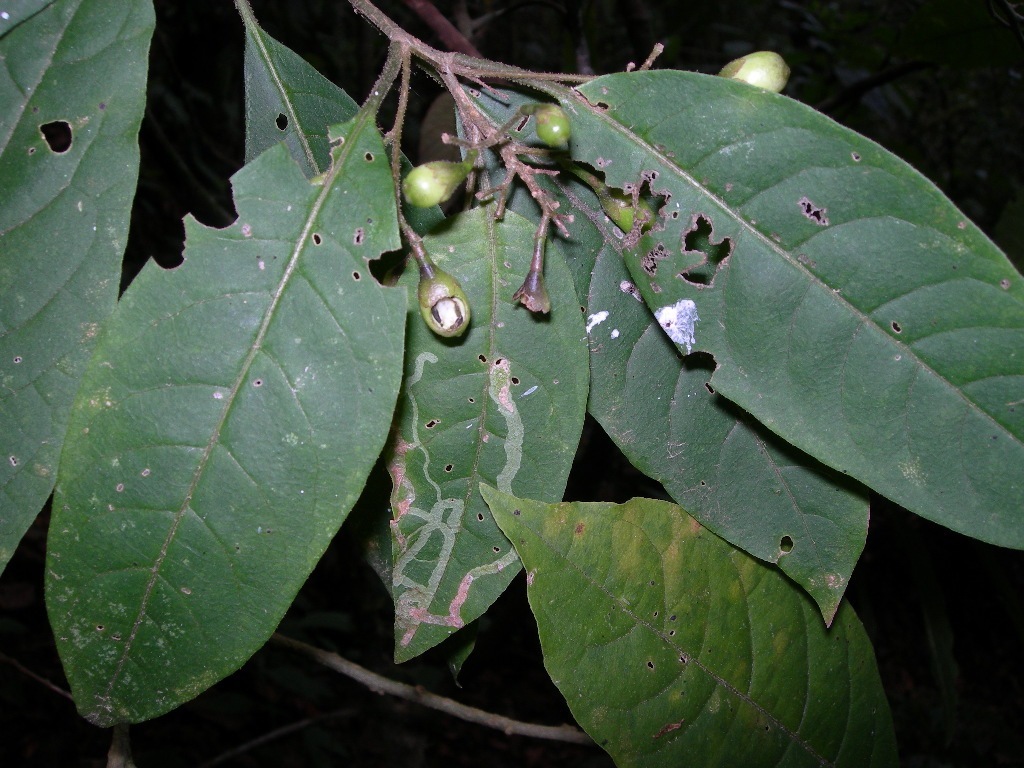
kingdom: Plantae
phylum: Tracheophyta
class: Magnoliopsida
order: Solanales
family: Solanaceae
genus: Cestrum
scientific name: Cestrum guatemalense
